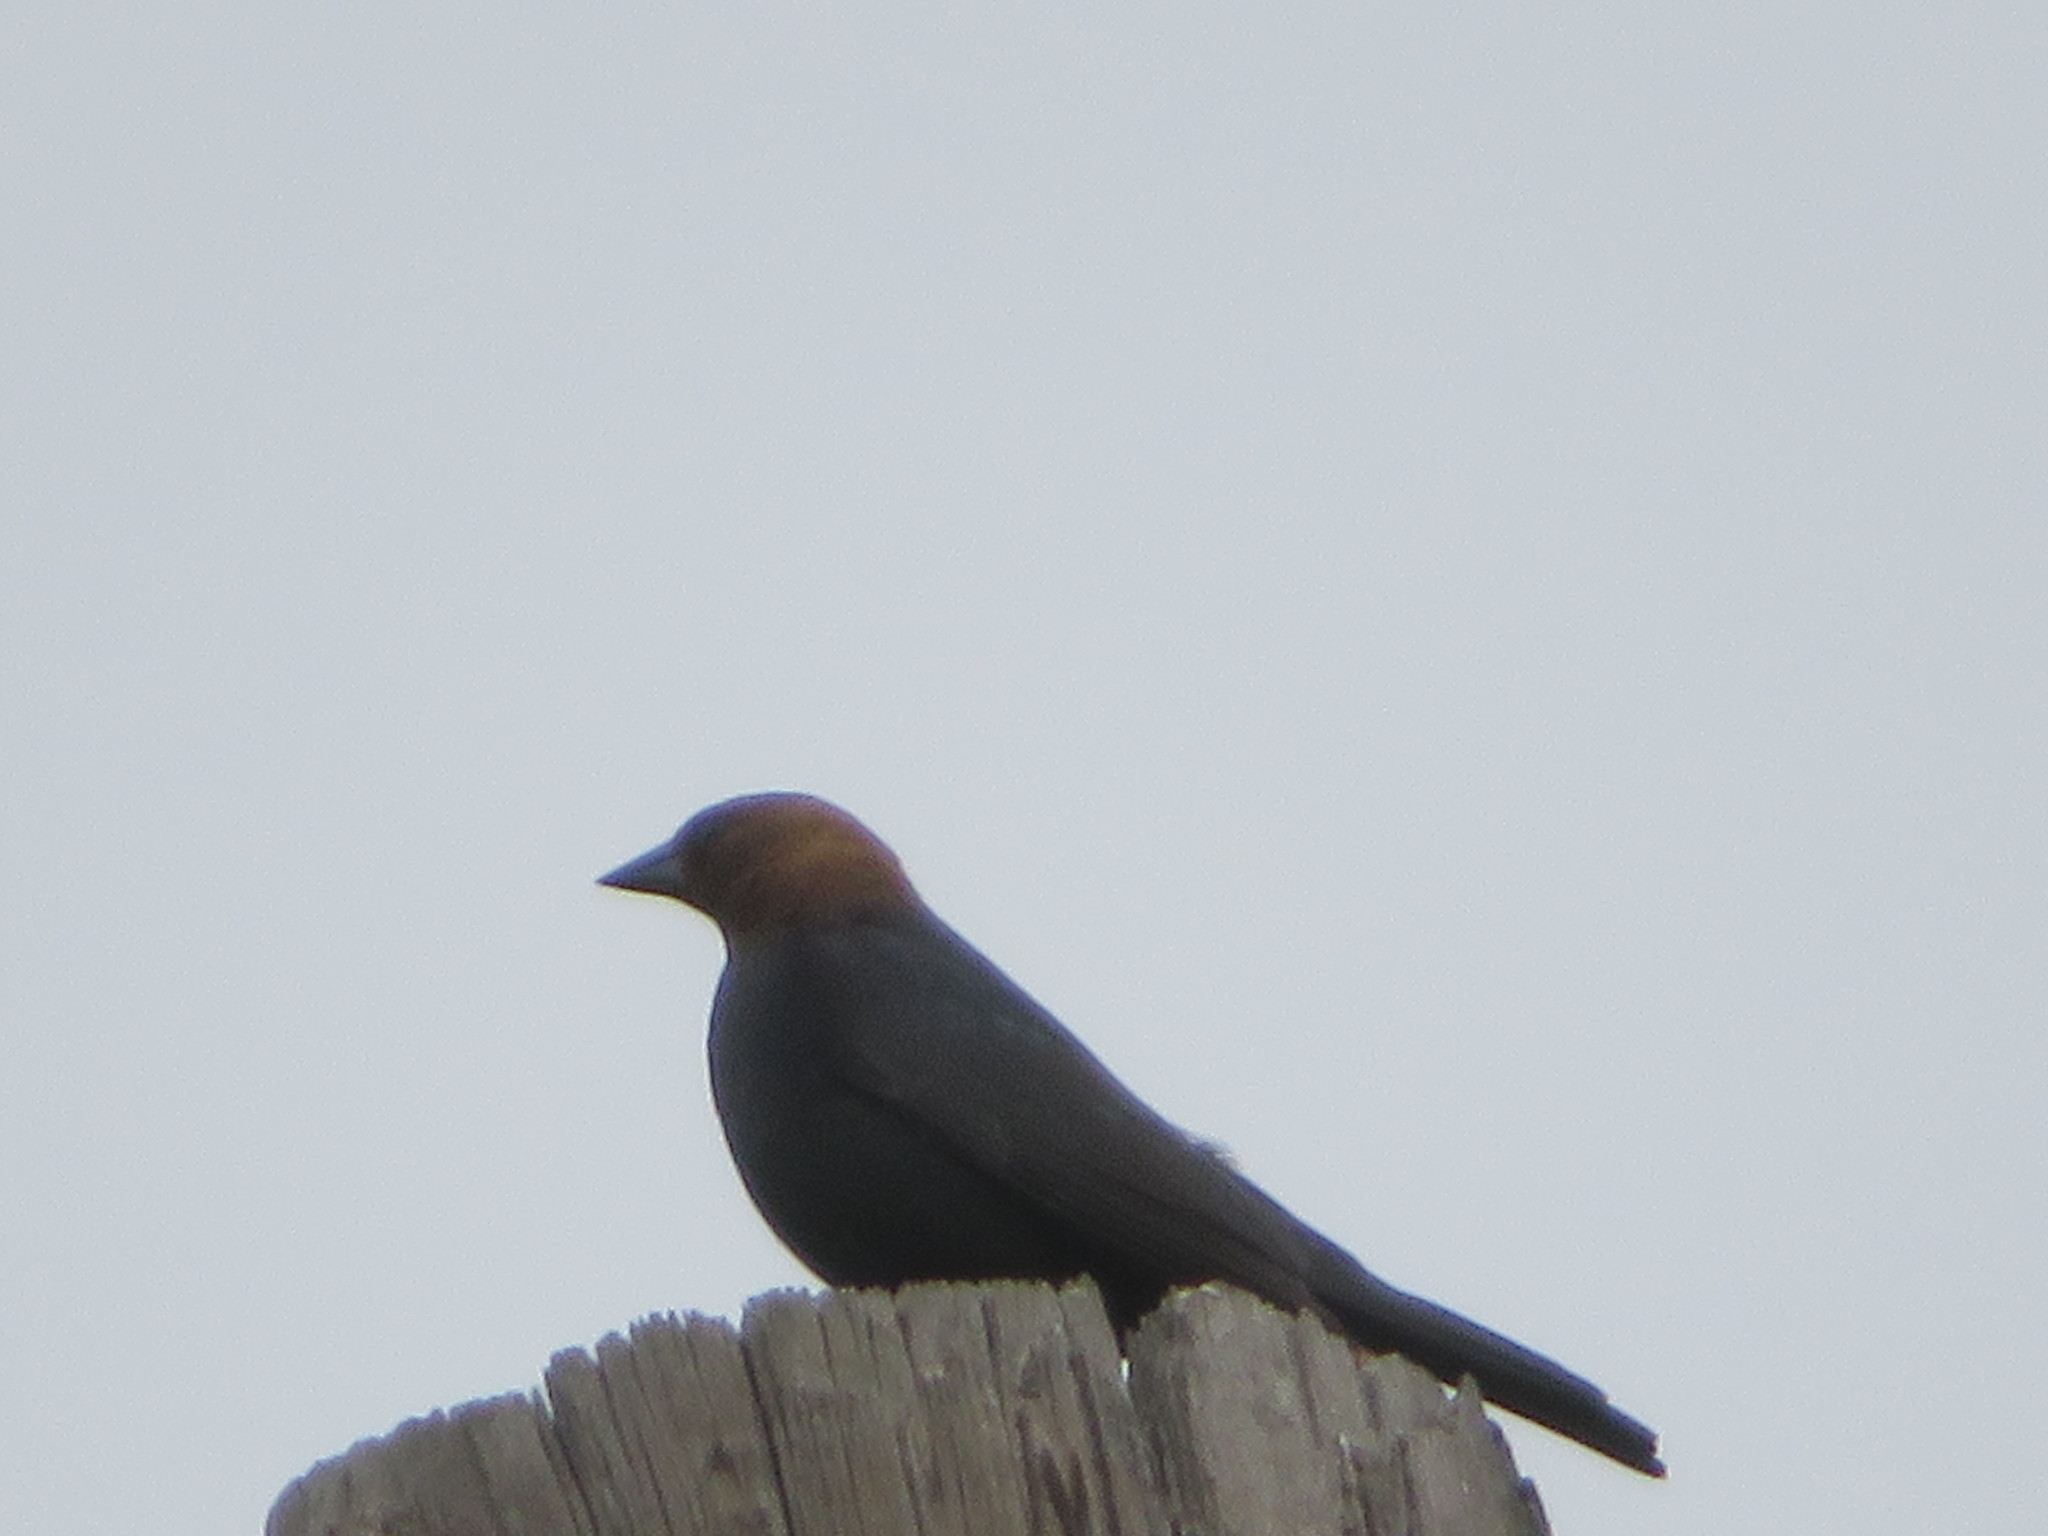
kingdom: Animalia
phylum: Chordata
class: Aves
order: Passeriformes
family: Icteridae
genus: Molothrus
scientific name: Molothrus ater
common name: Brown-headed cowbird
